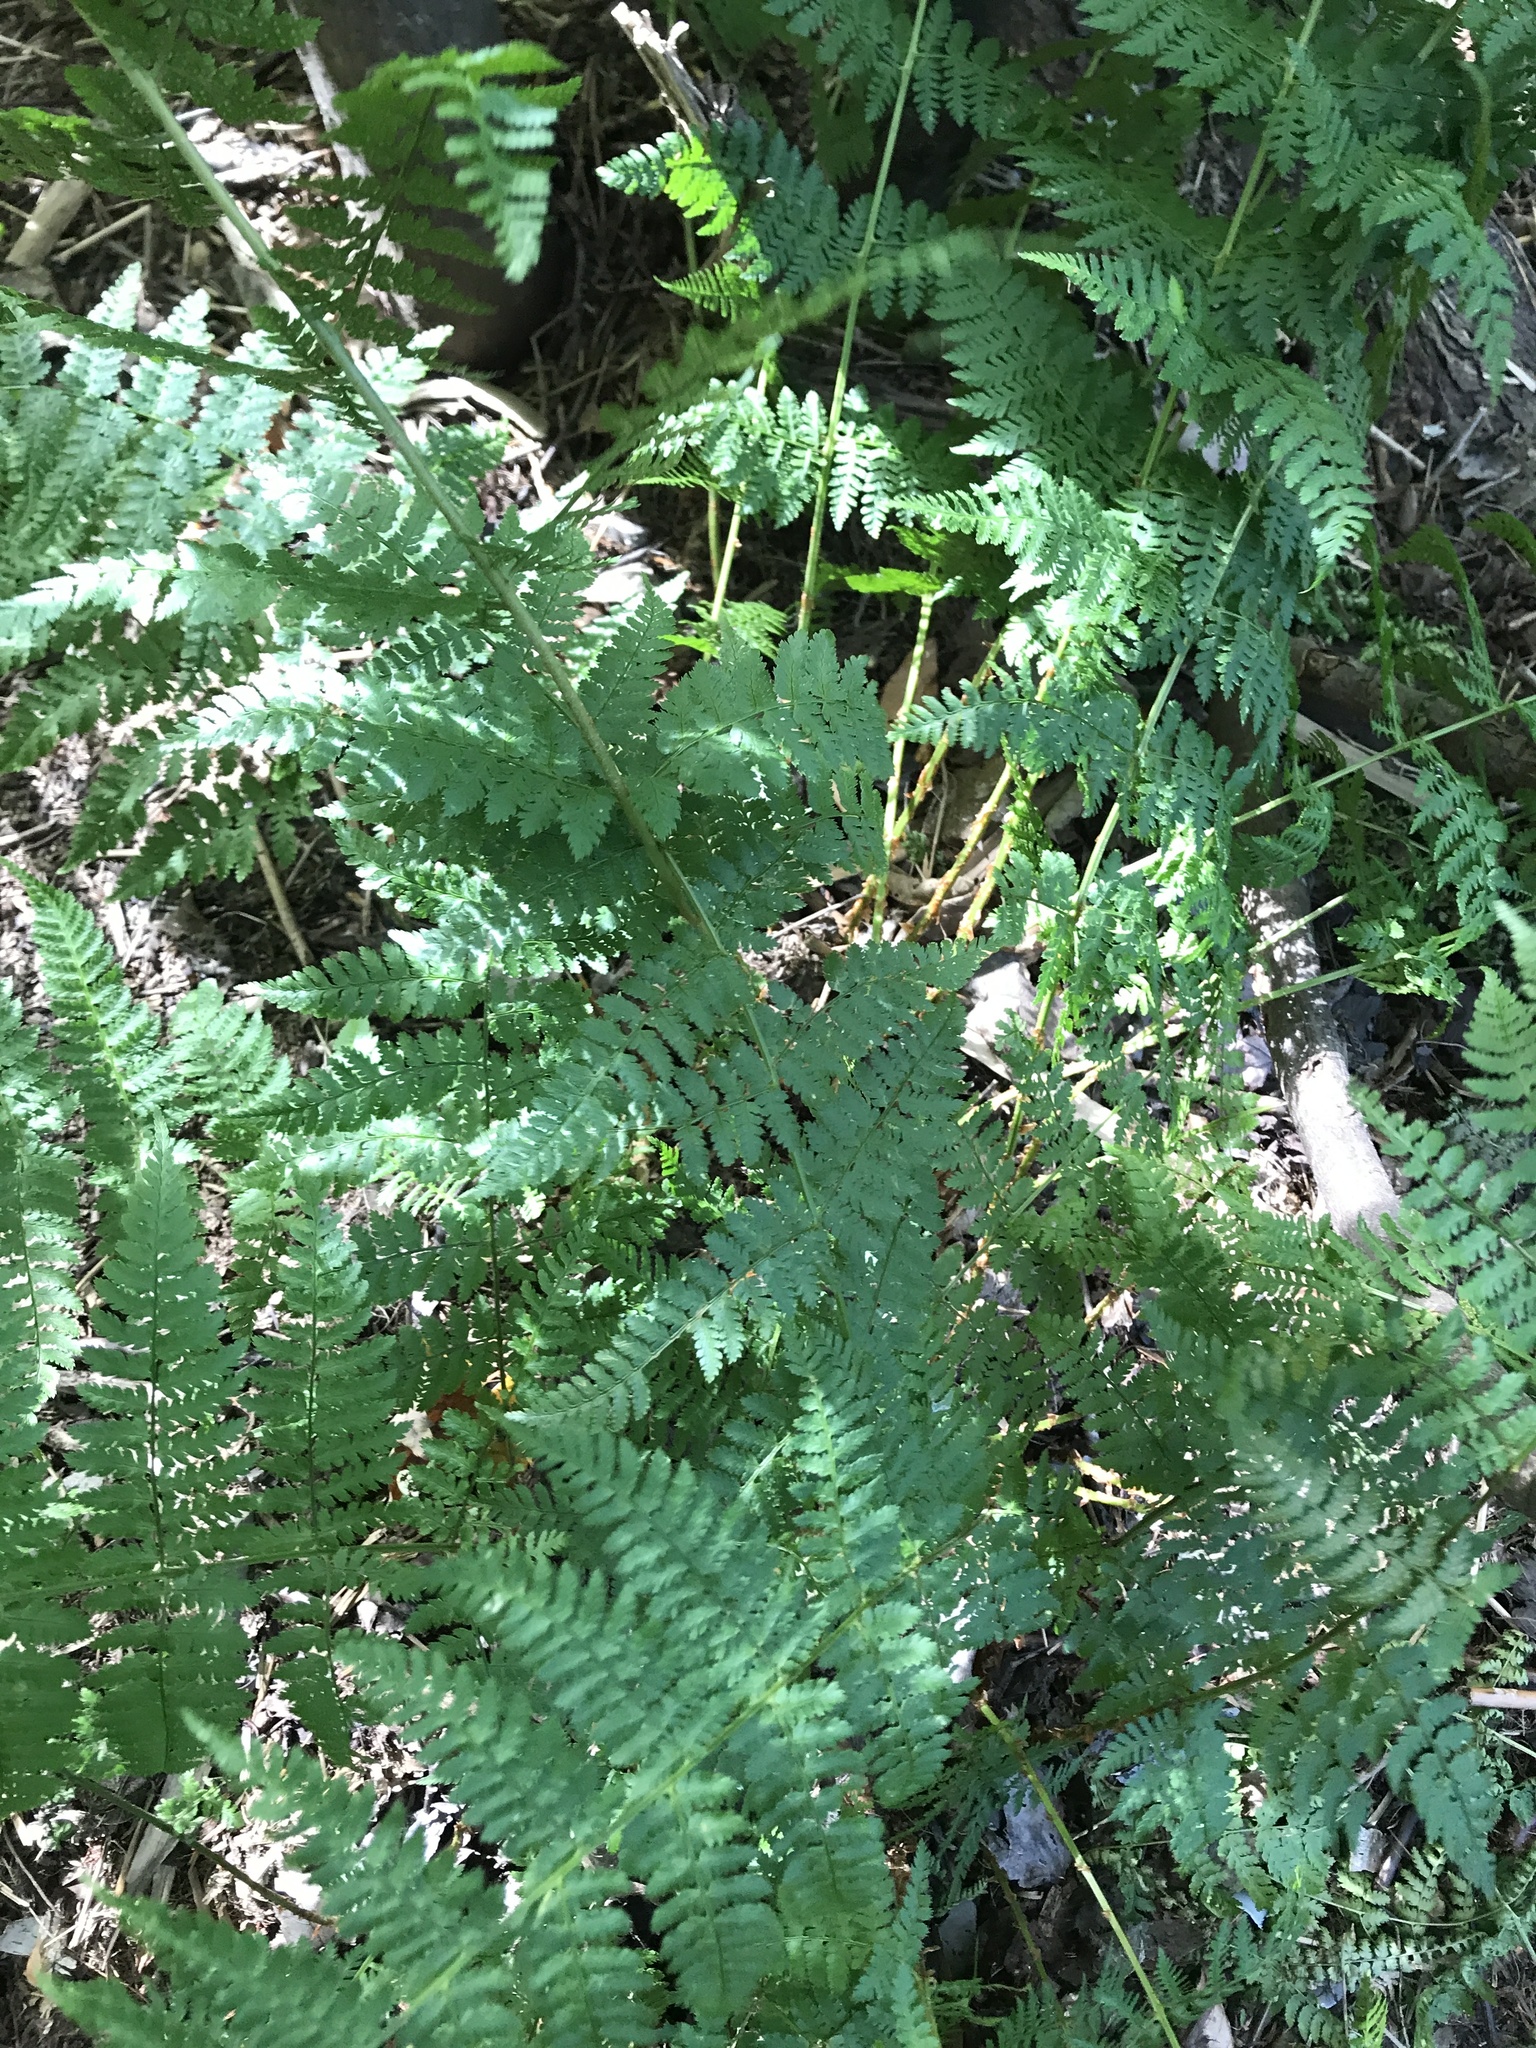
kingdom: Plantae
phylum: Tracheophyta
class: Polypodiopsida
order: Polypodiales
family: Dryopteridaceae
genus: Dryopteris
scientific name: Dryopteris intermedia
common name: Evergreen wood fern
